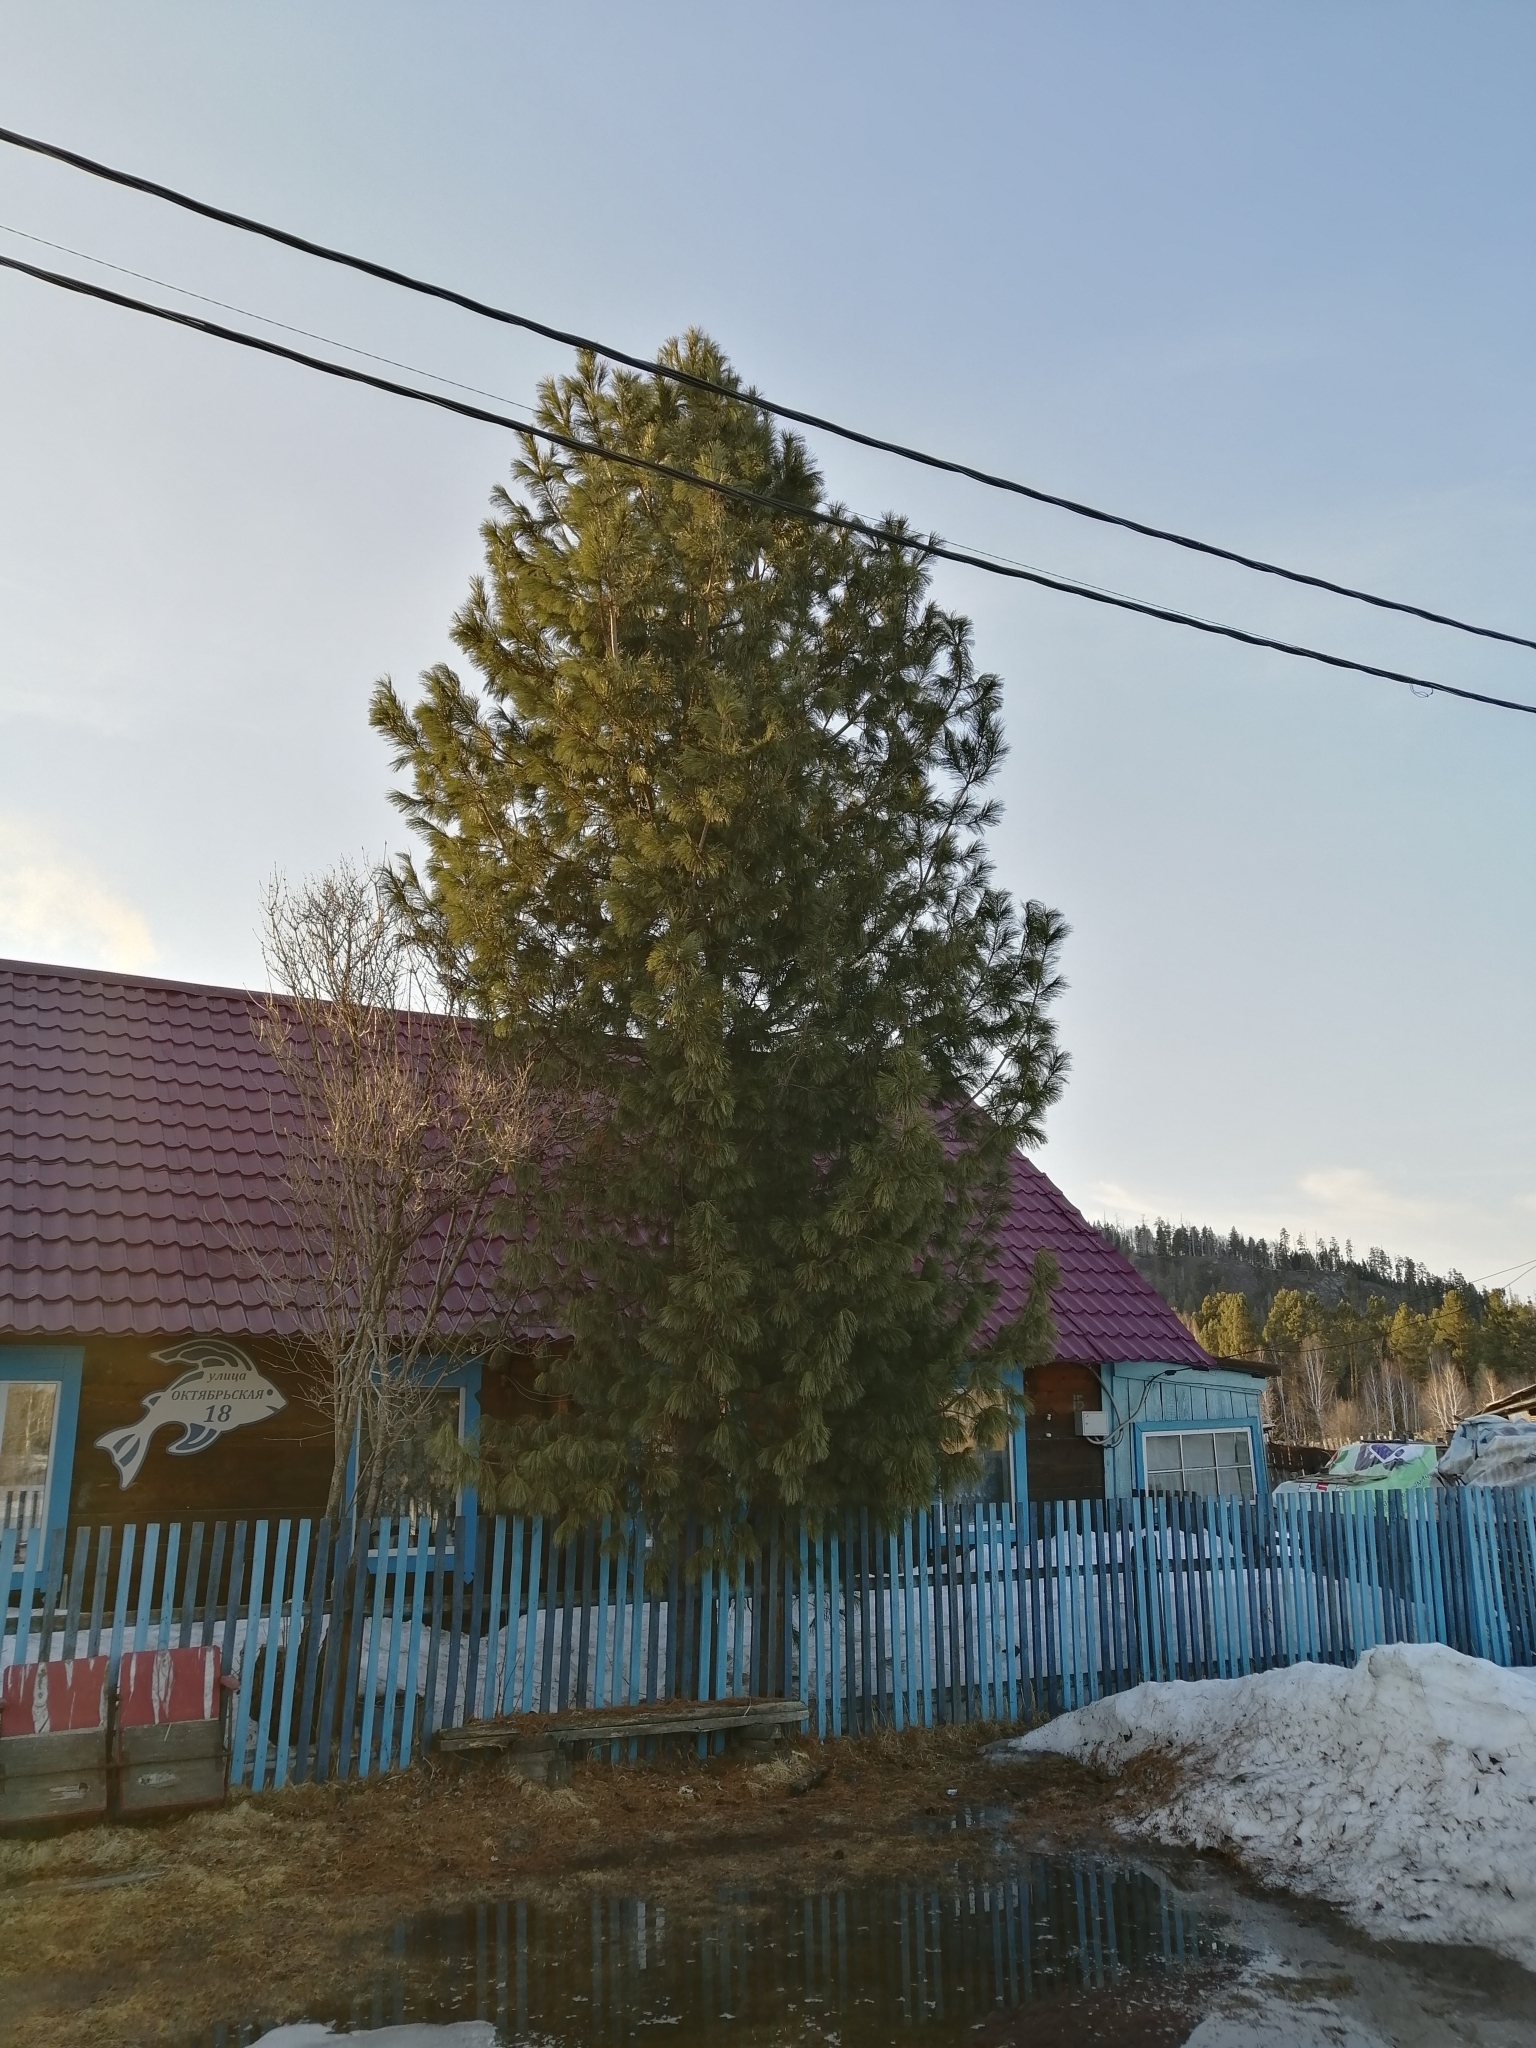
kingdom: Plantae
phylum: Tracheophyta
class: Pinopsida
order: Pinales
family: Pinaceae
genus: Pinus
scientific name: Pinus sibirica
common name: Siberian pine
